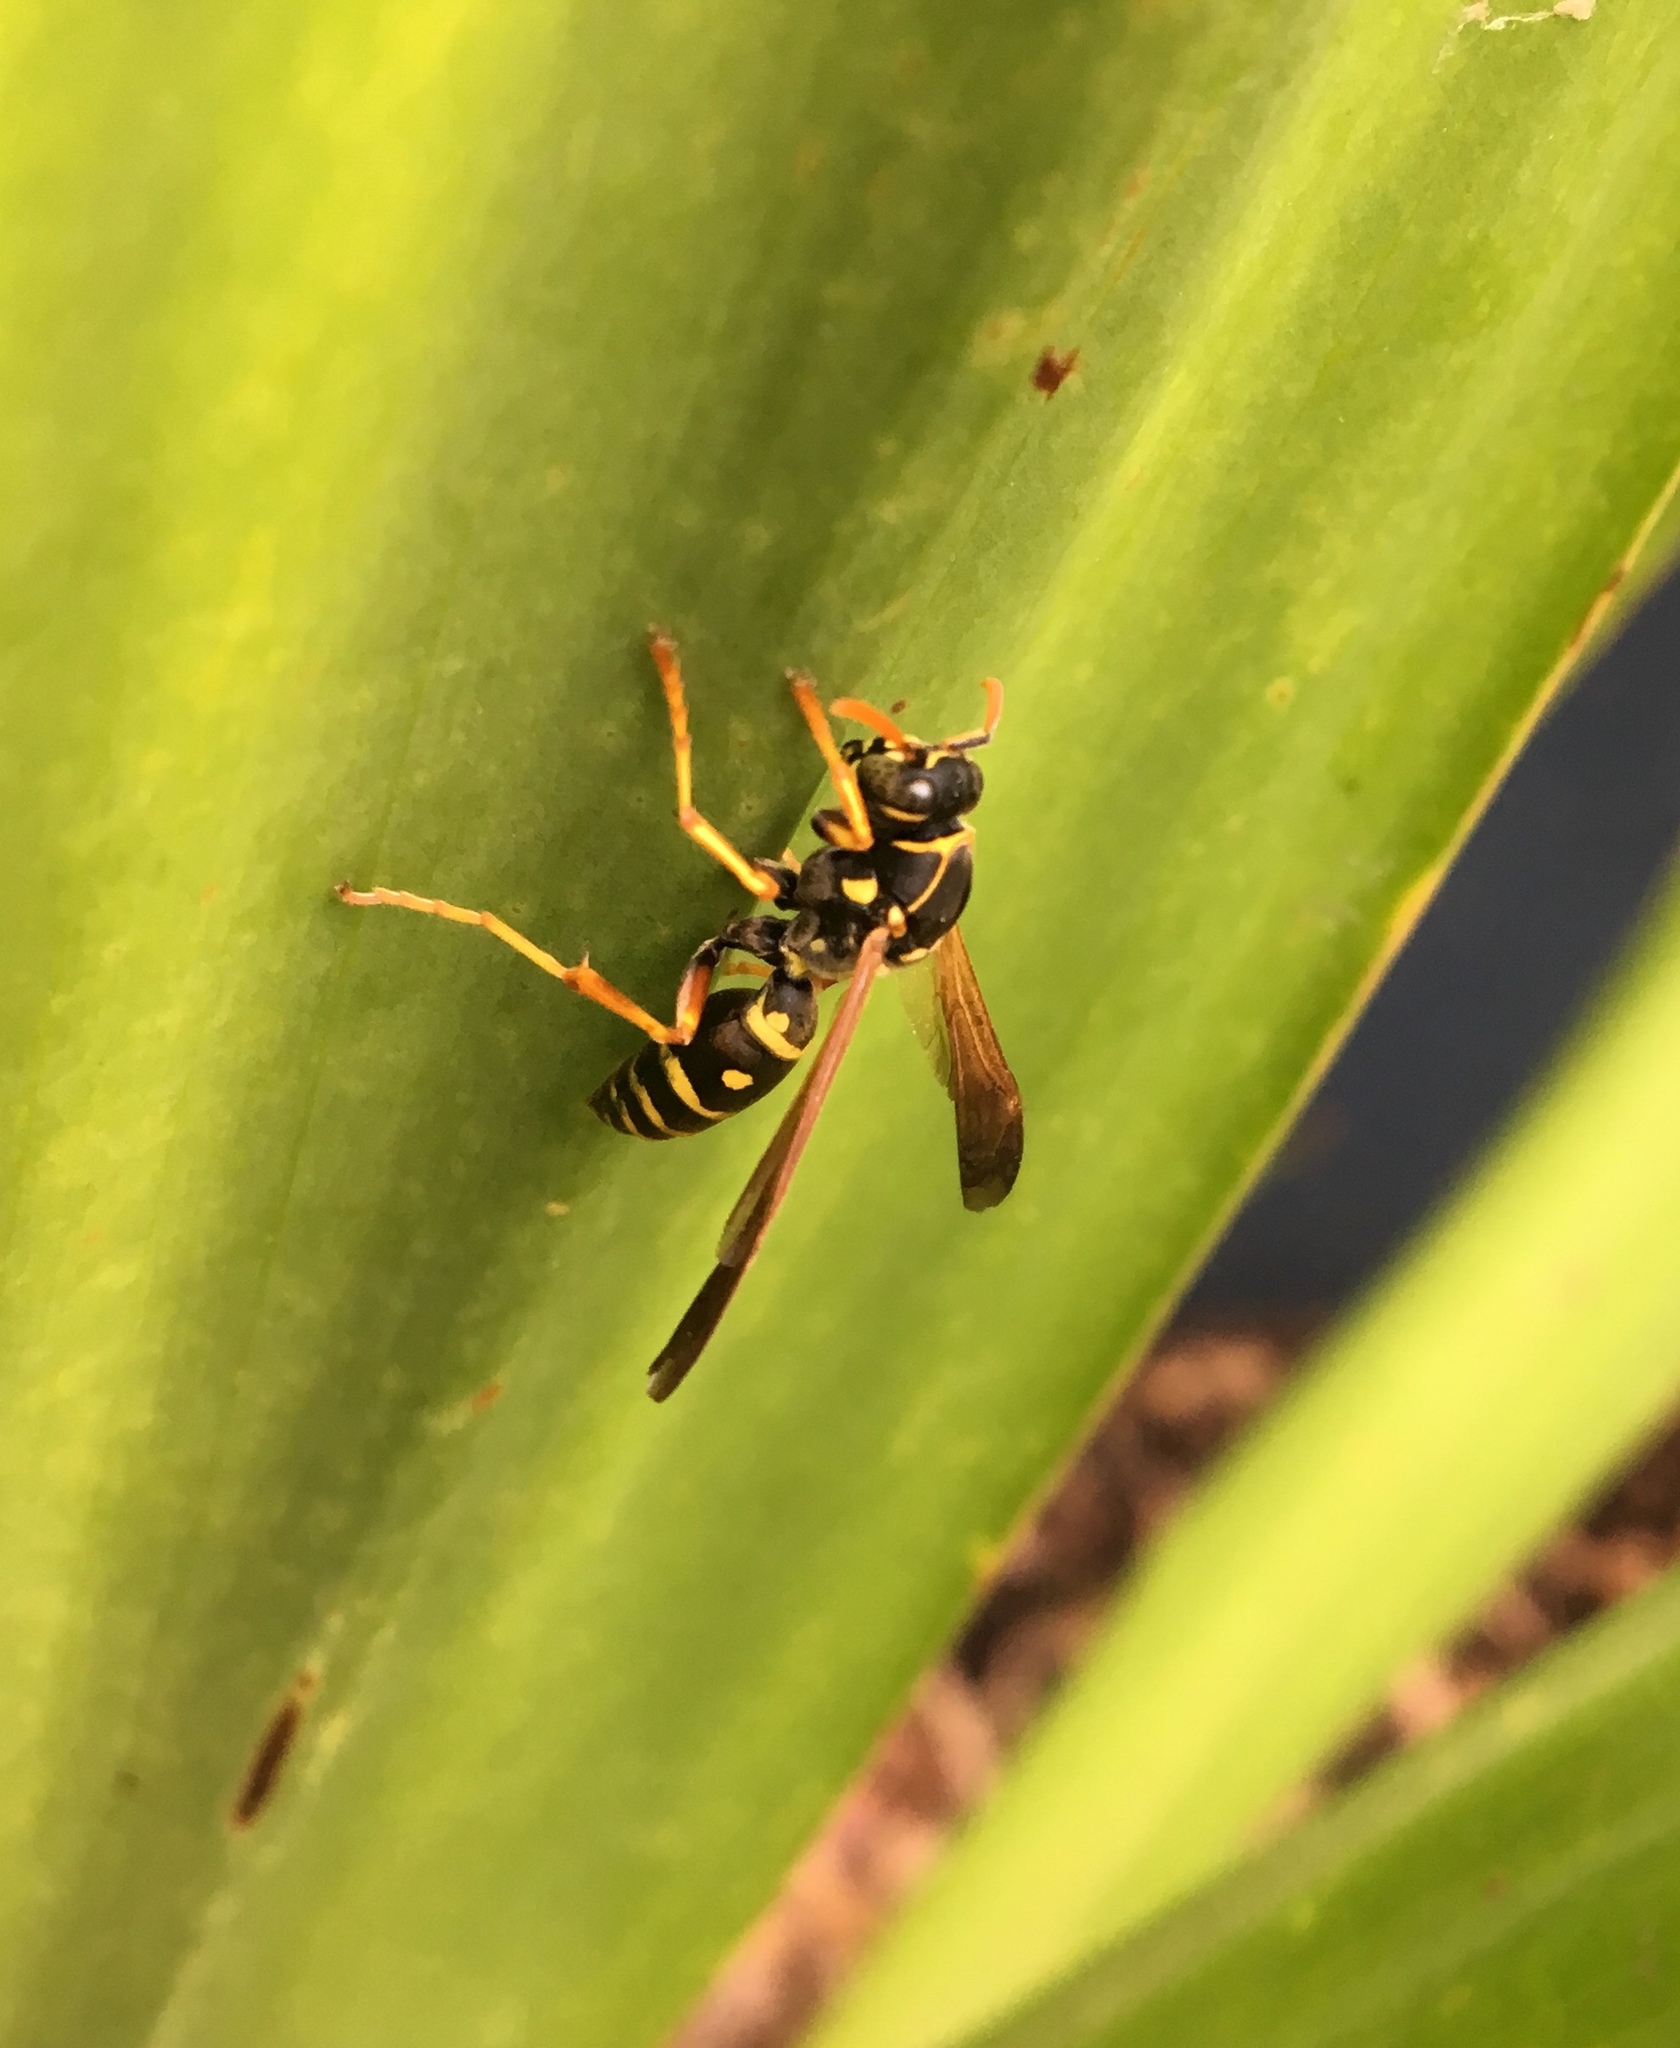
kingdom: Animalia
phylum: Arthropoda
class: Insecta
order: Hymenoptera
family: Eumenidae
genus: Polistes
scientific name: Polistes chinensis
